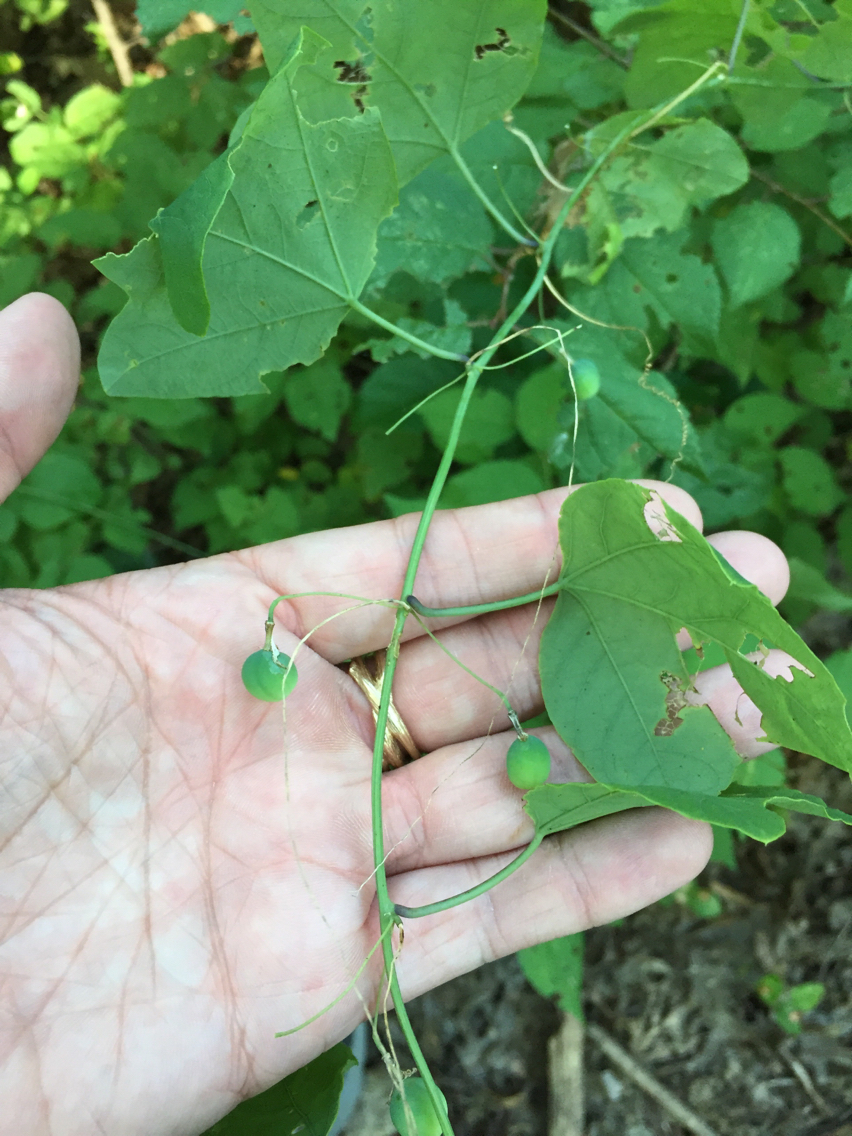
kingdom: Plantae
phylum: Tracheophyta
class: Magnoliopsida
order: Malpighiales
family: Passifloraceae
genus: Passiflora
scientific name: Passiflora lutea
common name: Yellow passionflower
